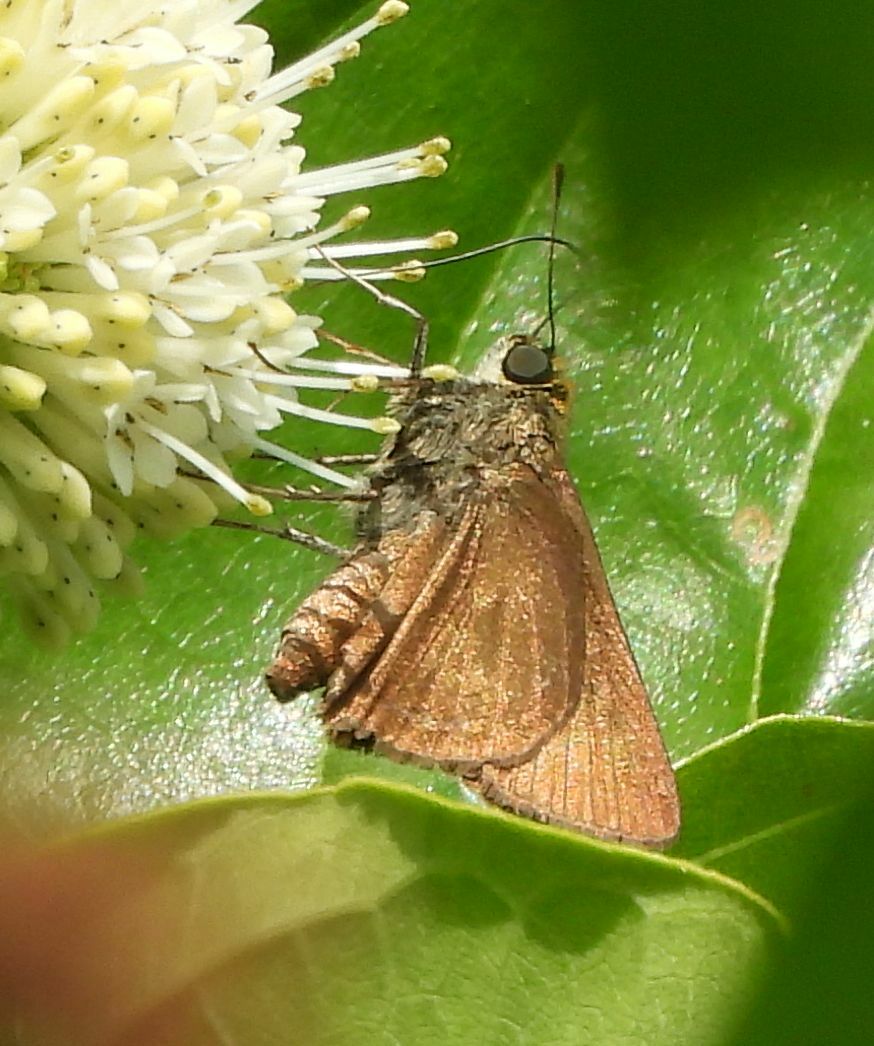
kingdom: Animalia
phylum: Arthropoda
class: Insecta
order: Lepidoptera
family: Hesperiidae
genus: Euphyes
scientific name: Euphyes vestris
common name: Dun skipper
